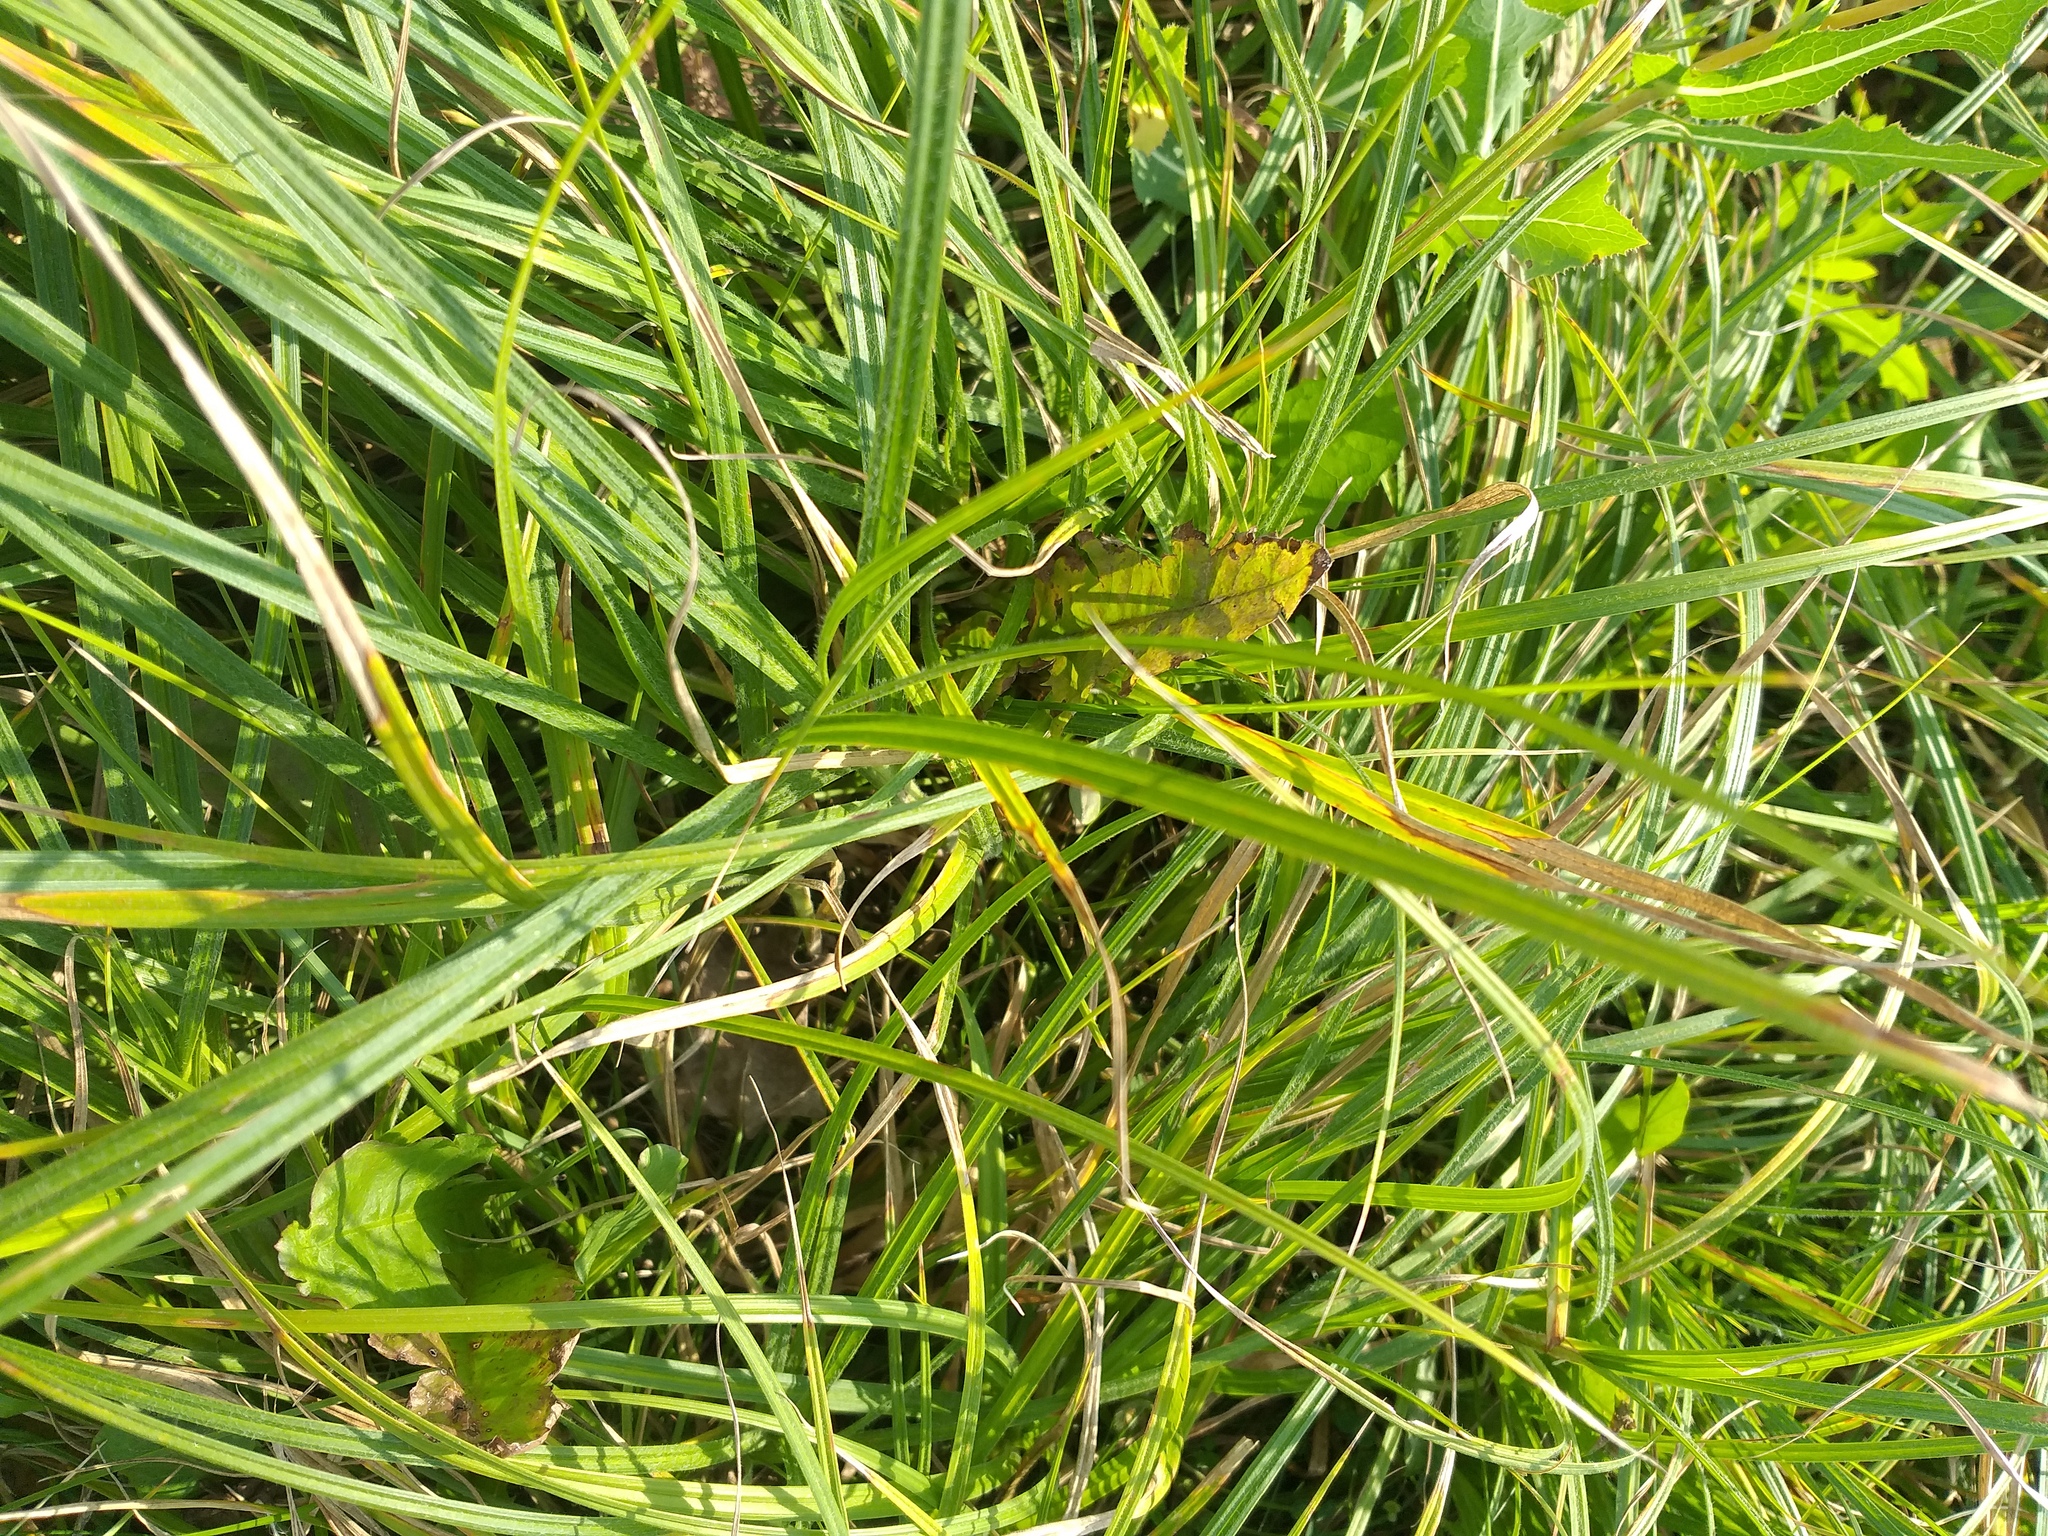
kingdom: Plantae
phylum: Tracheophyta
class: Liliopsida
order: Poales
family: Cyperaceae
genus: Carex
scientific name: Carex hirta
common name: Hairy sedge
